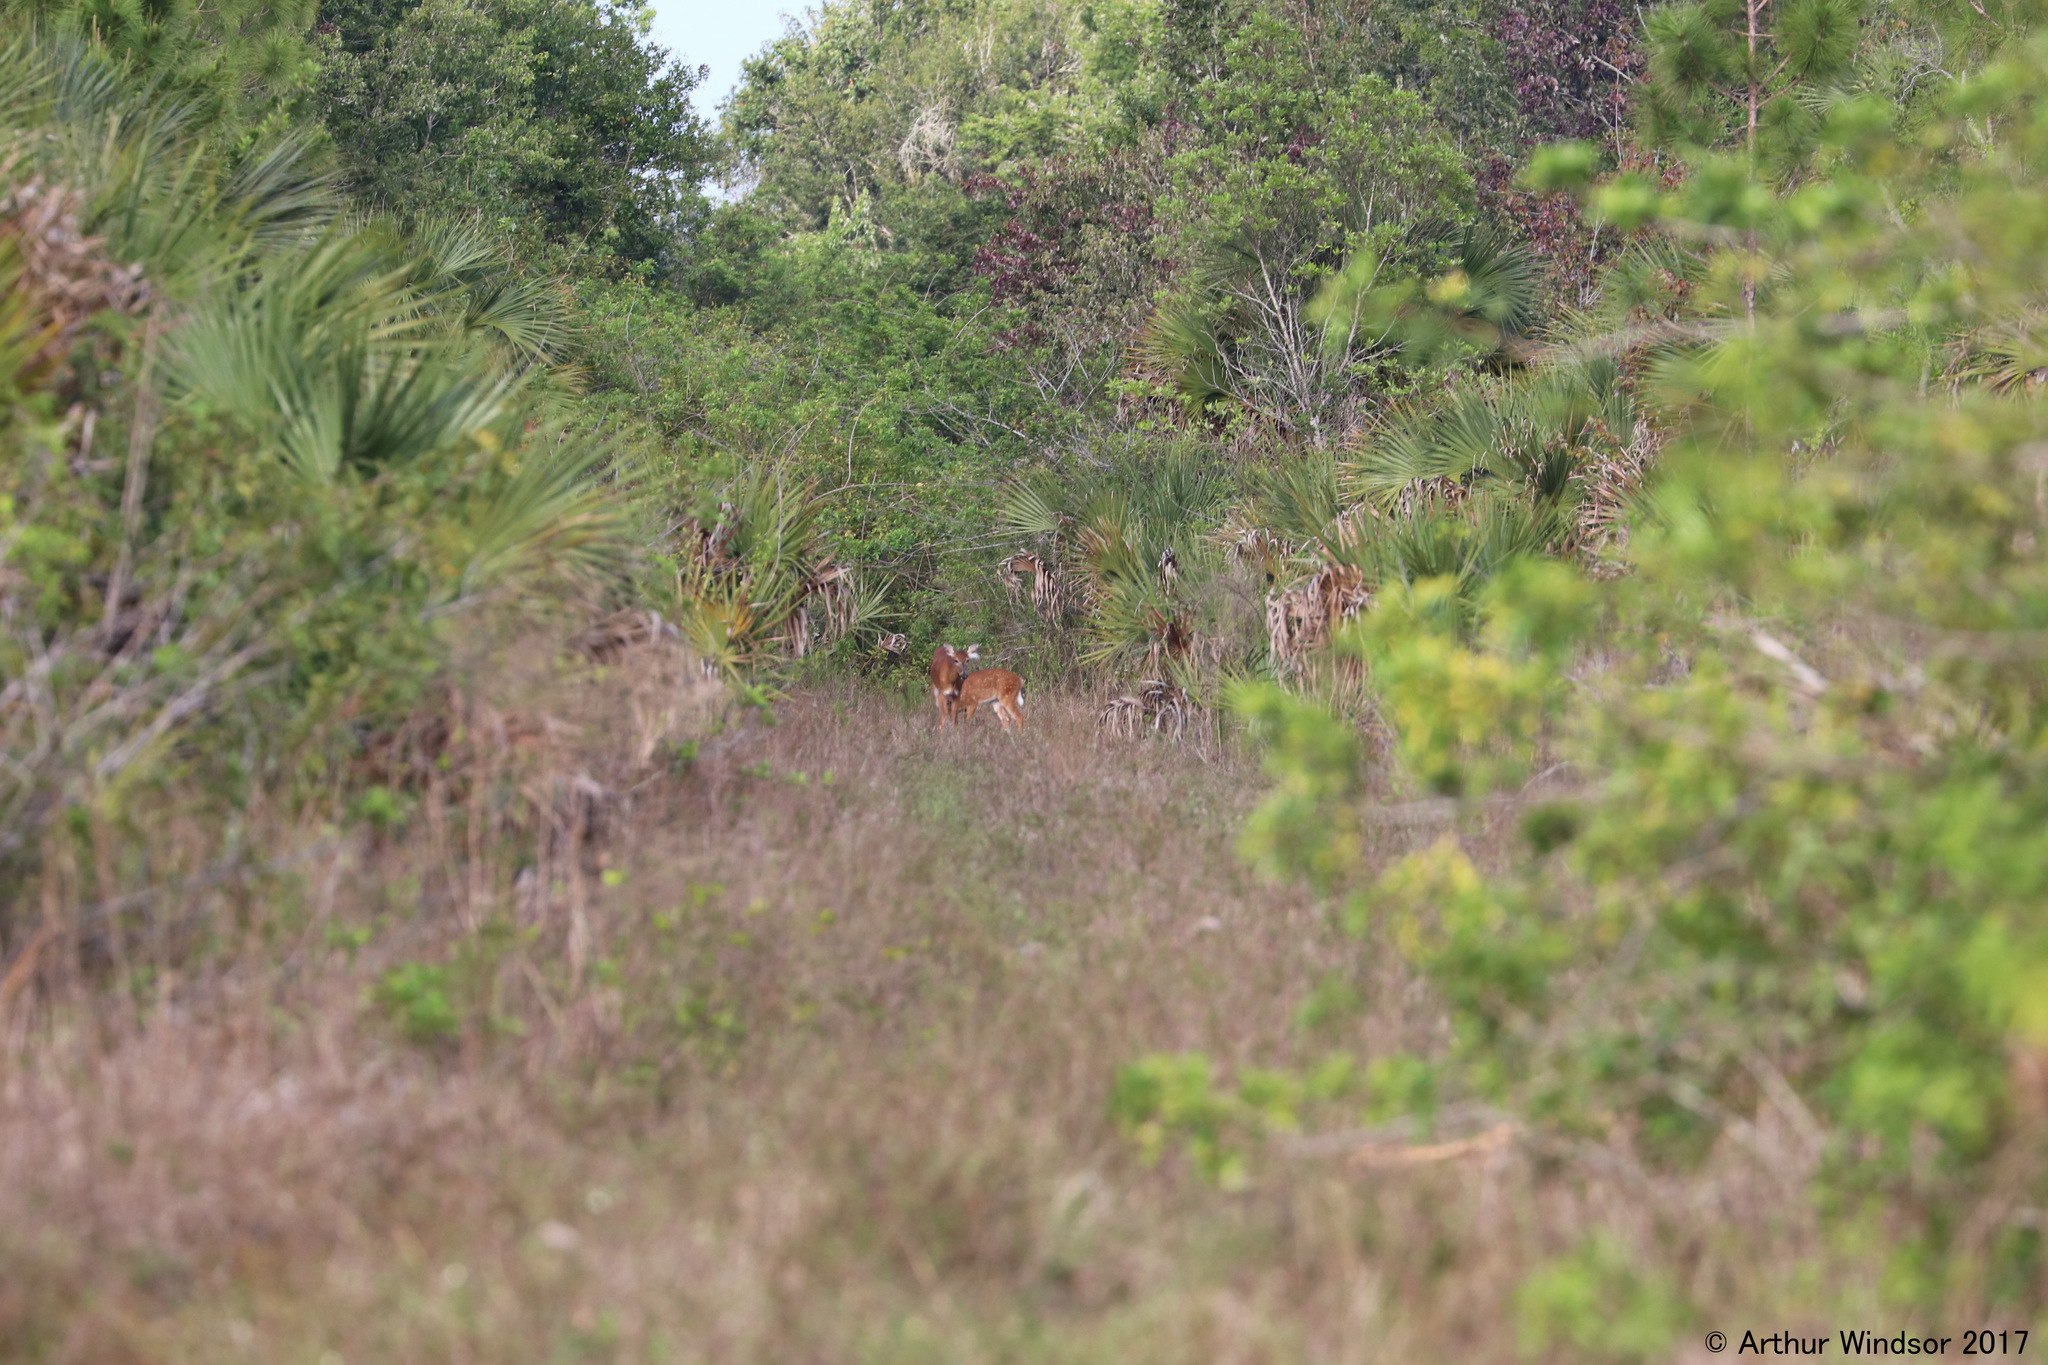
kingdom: Animalia
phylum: Chordata
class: Mammalia
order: Artiodactyla
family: Cervidae
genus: Odocoileus
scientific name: Odocoileus virginianus
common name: White-tailed deer
